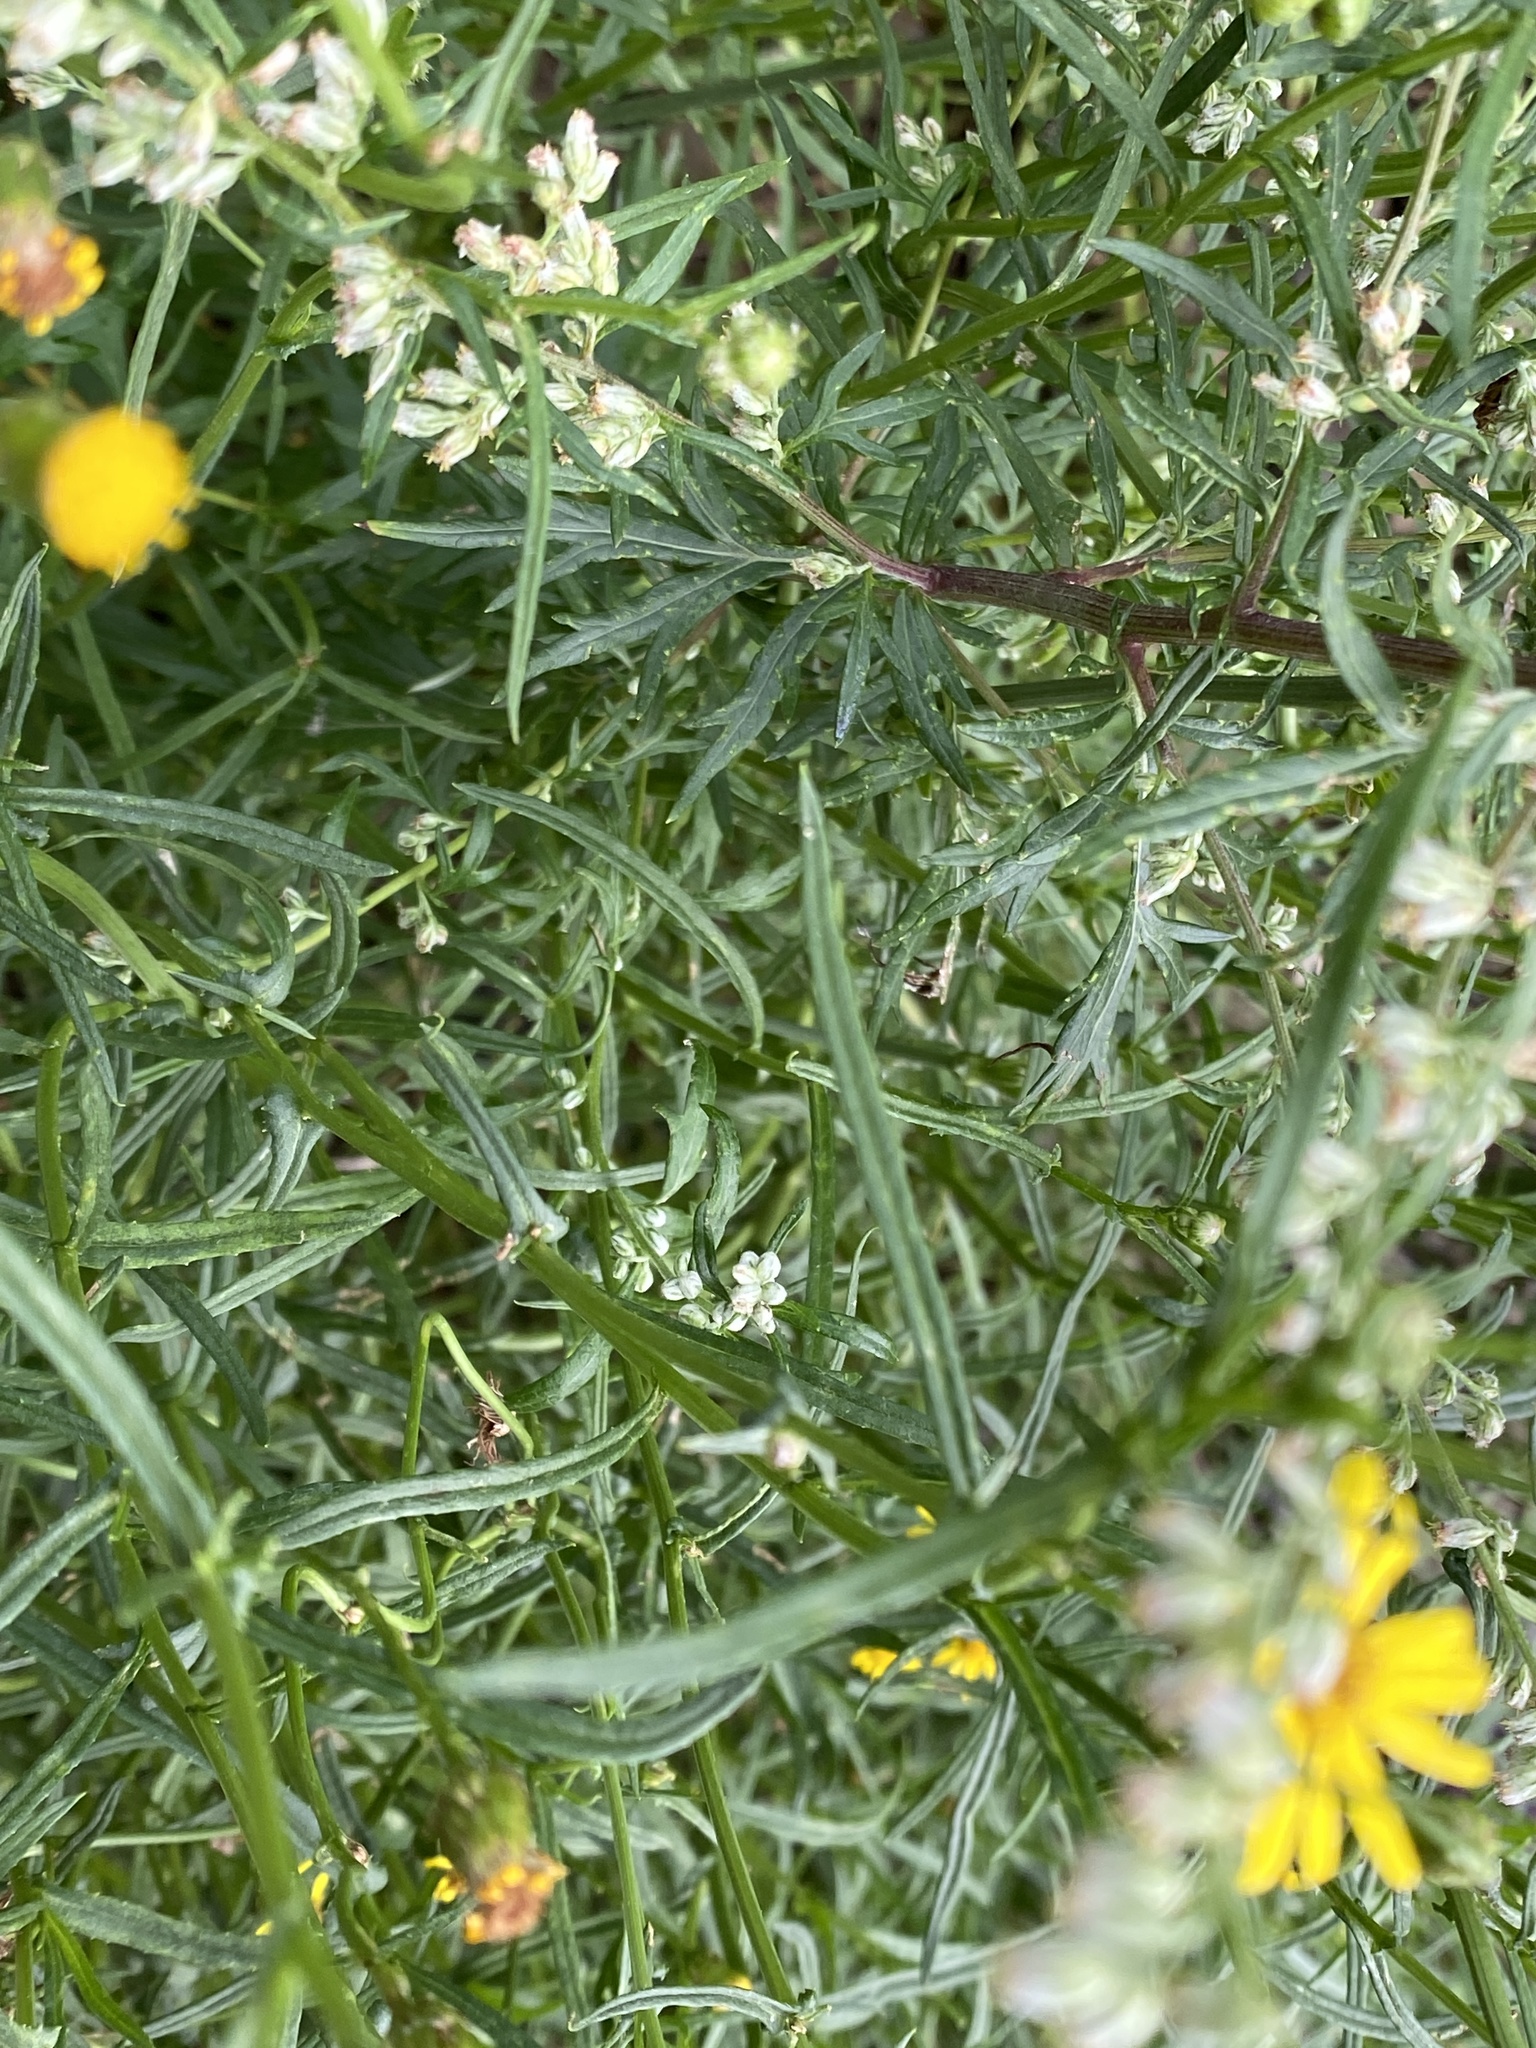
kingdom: Plantae
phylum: Tracheophyta
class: Magnoliopsida
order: Asterales
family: Asteraceae
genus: Senecio
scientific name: Senecio inaequidens
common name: Narrow-leaved ragwort
